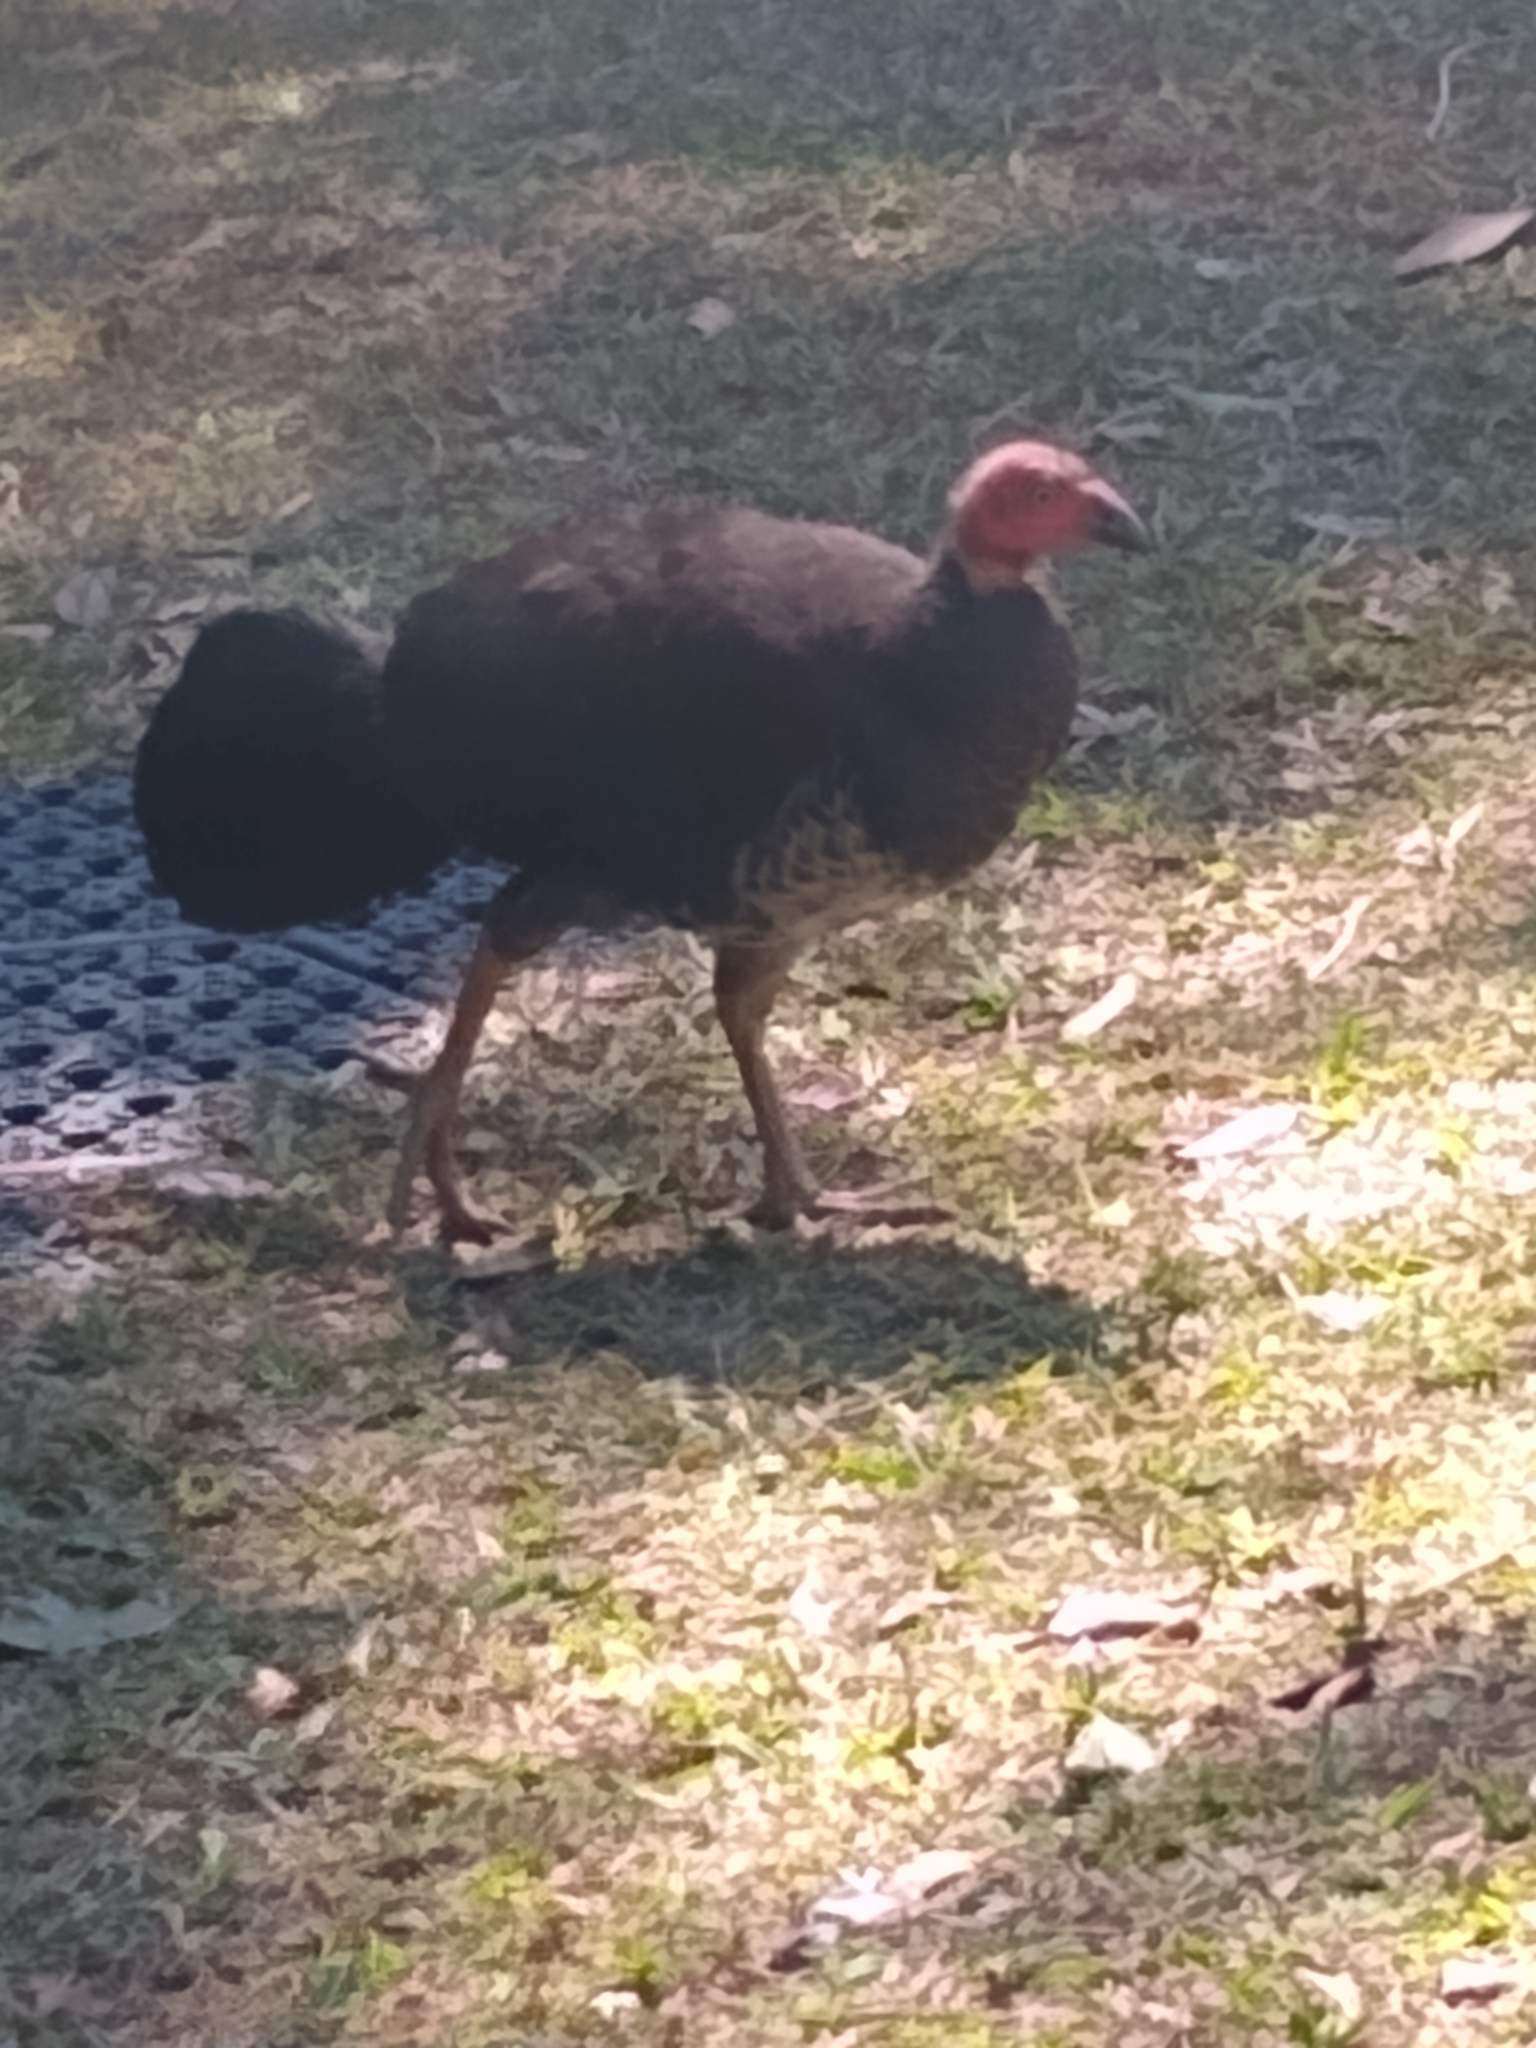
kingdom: Animalia
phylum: Chordata
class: Aves
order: Galliformes
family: Megapodiidae
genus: Alectura
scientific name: Alectura lathami
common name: Australian brushturkey
